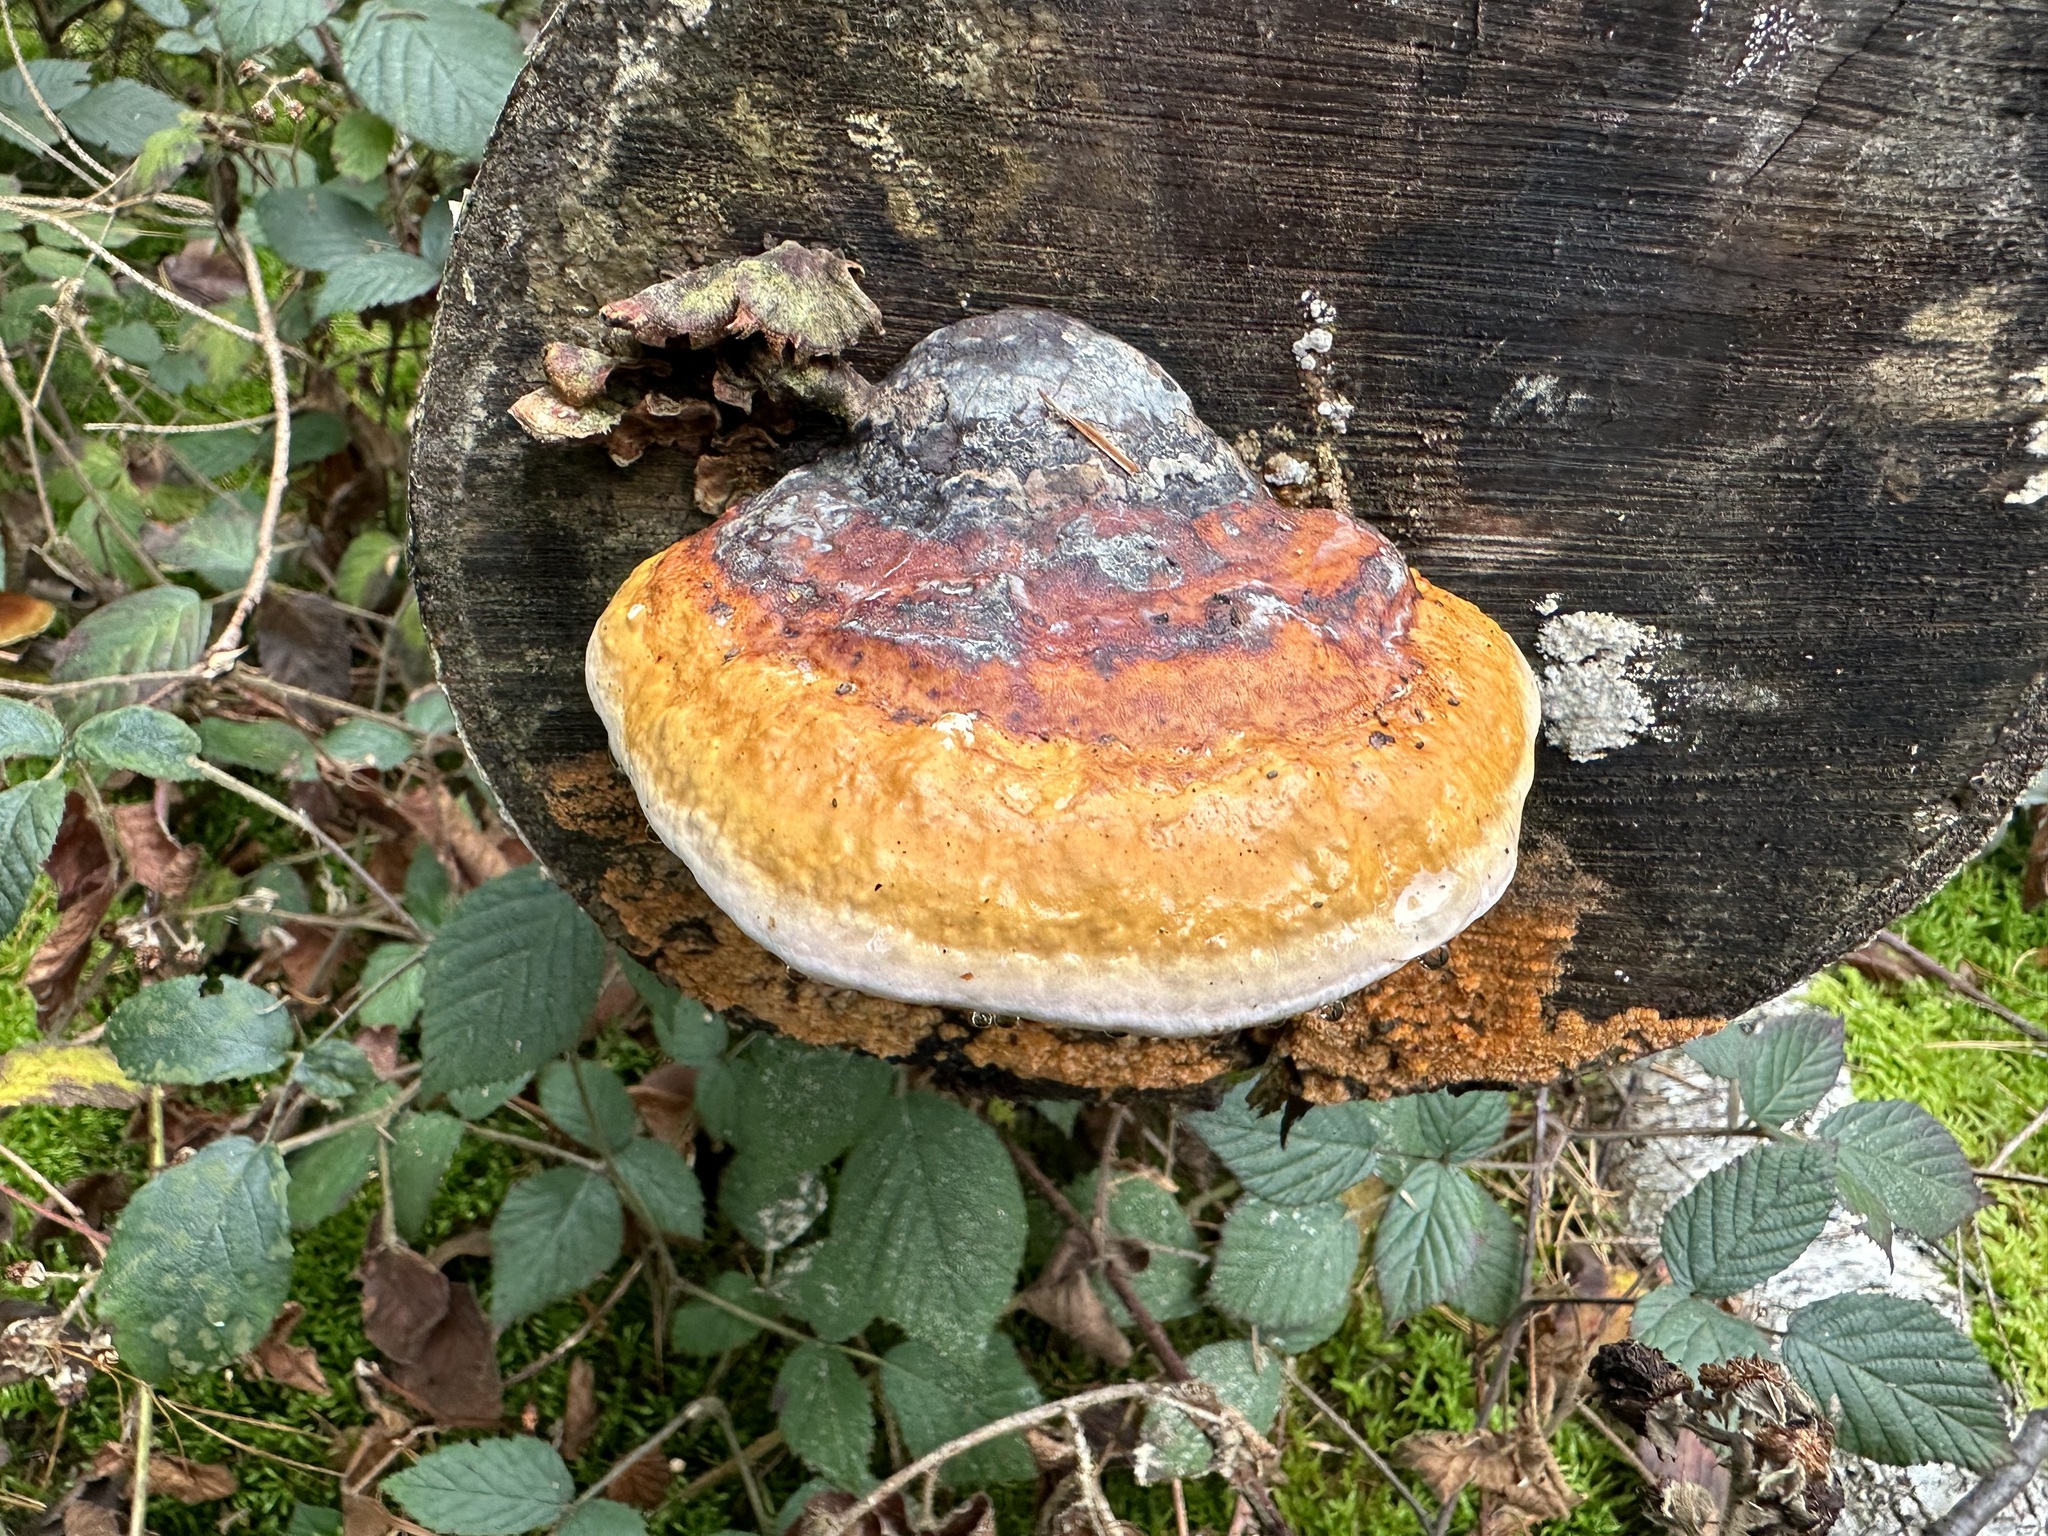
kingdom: Fungi
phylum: Basidiomycota
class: Agaricomycetes
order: Polyporales
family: Fomitopsidaceae
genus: Fomitopsis
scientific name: Fomitopsis pinicola
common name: Red-belted bracket
